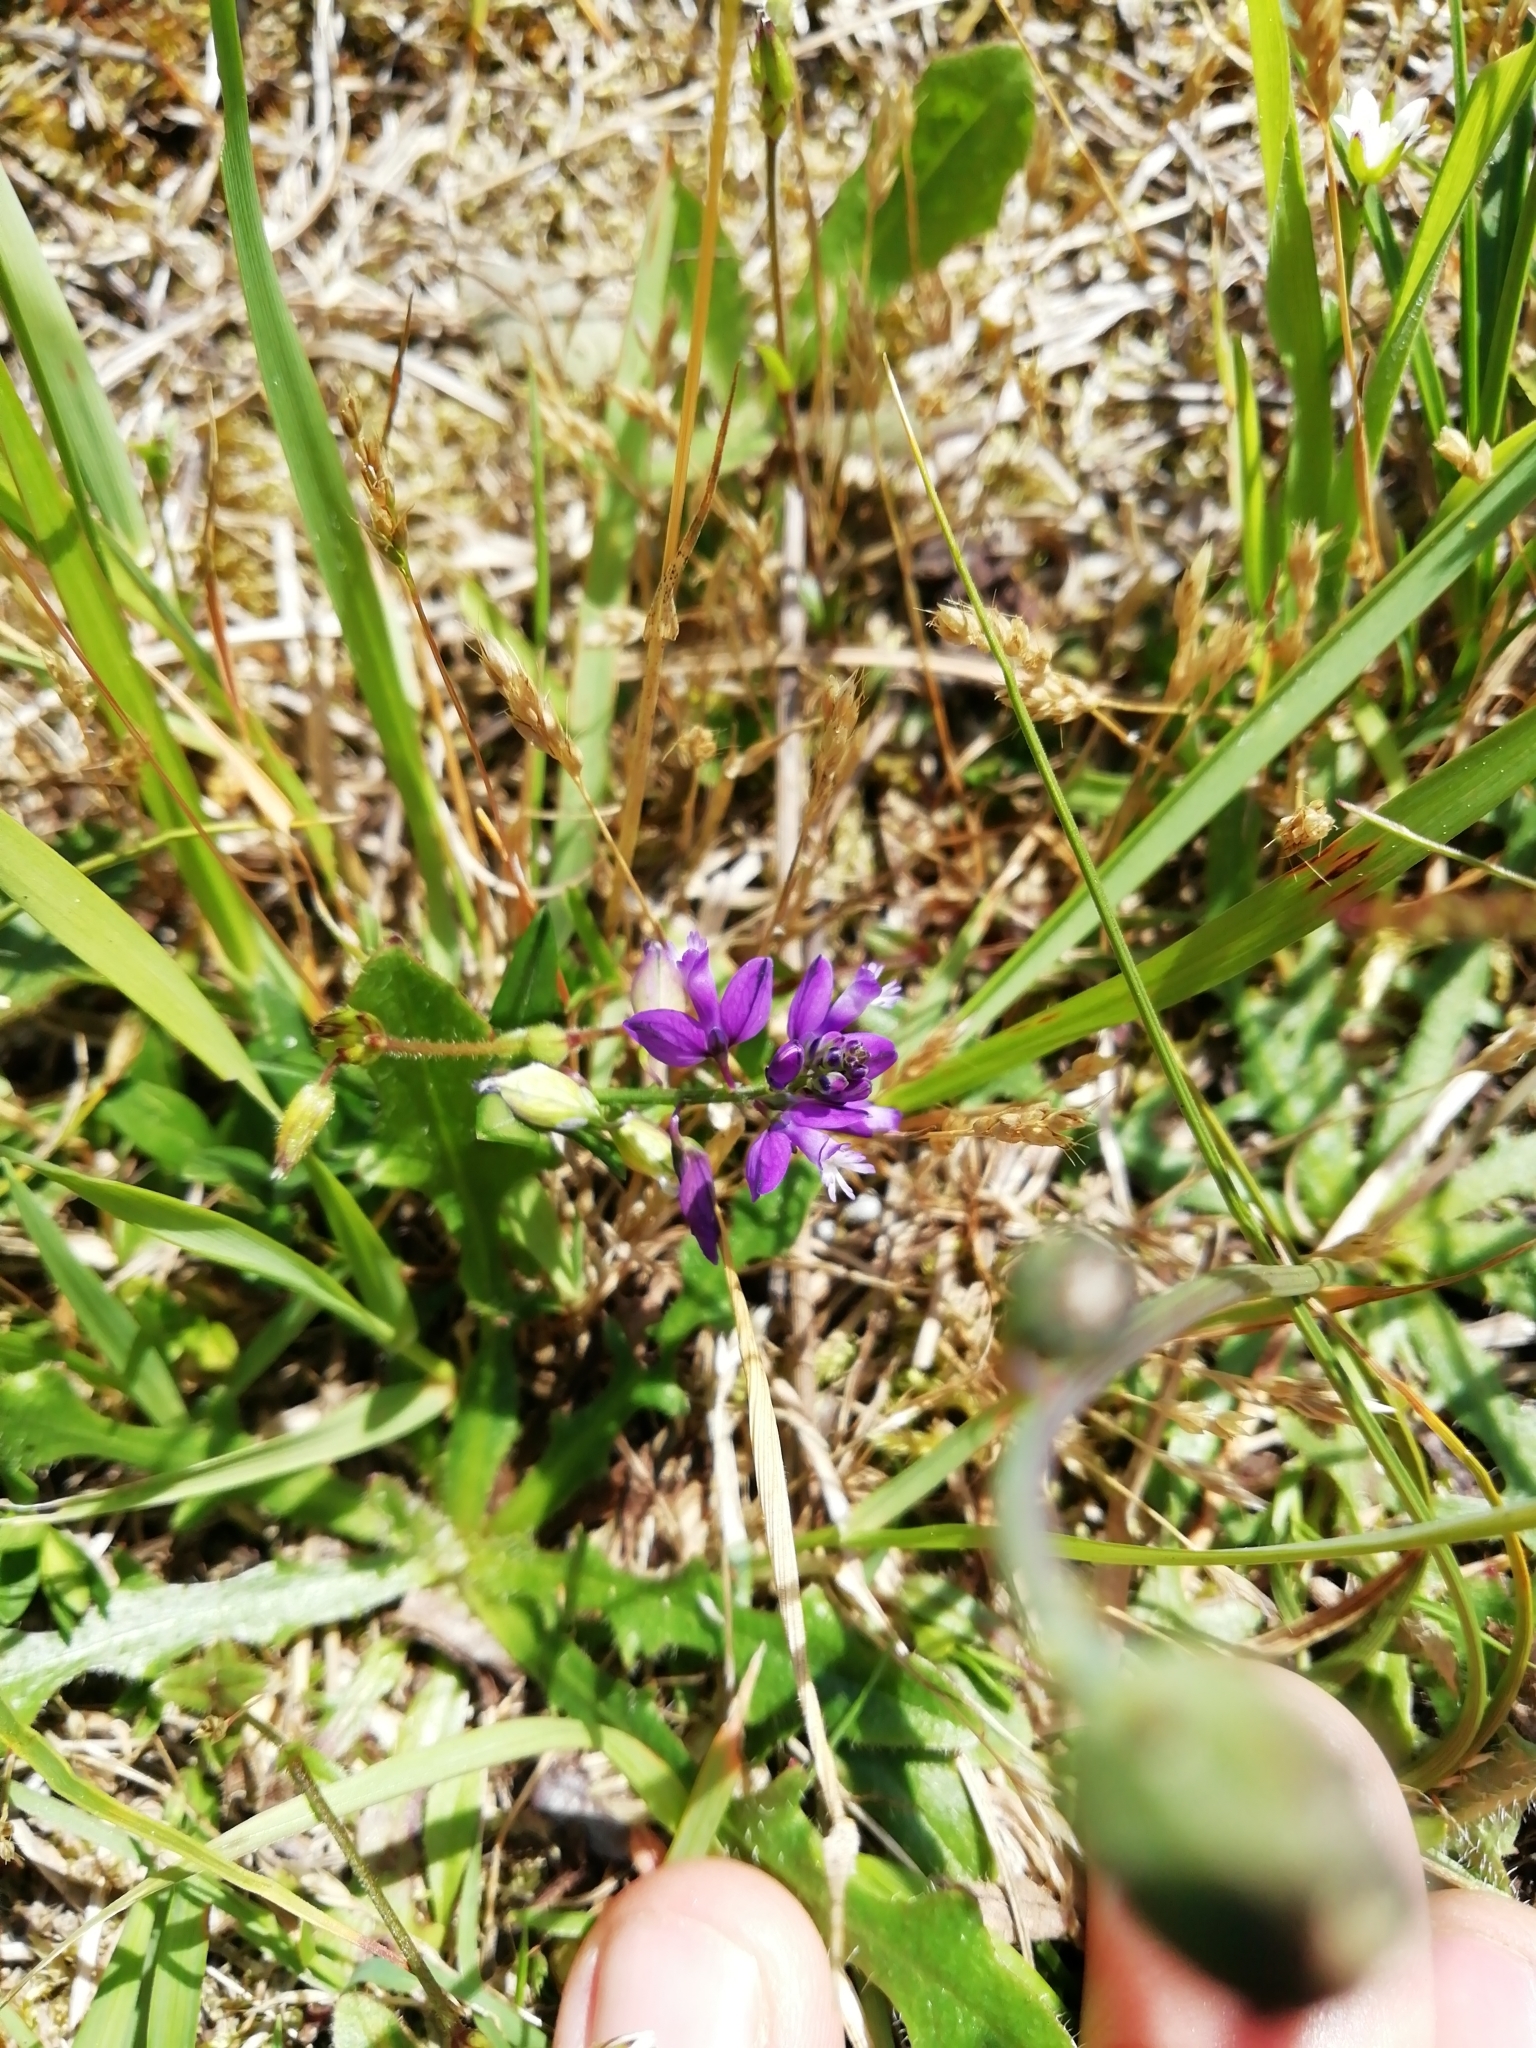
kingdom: Plantae
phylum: Tracheophyta
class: Magnoliopsida
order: Fabales
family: Polygalaceae
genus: Polygala
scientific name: Polygala vulgaris
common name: Common milkwort
